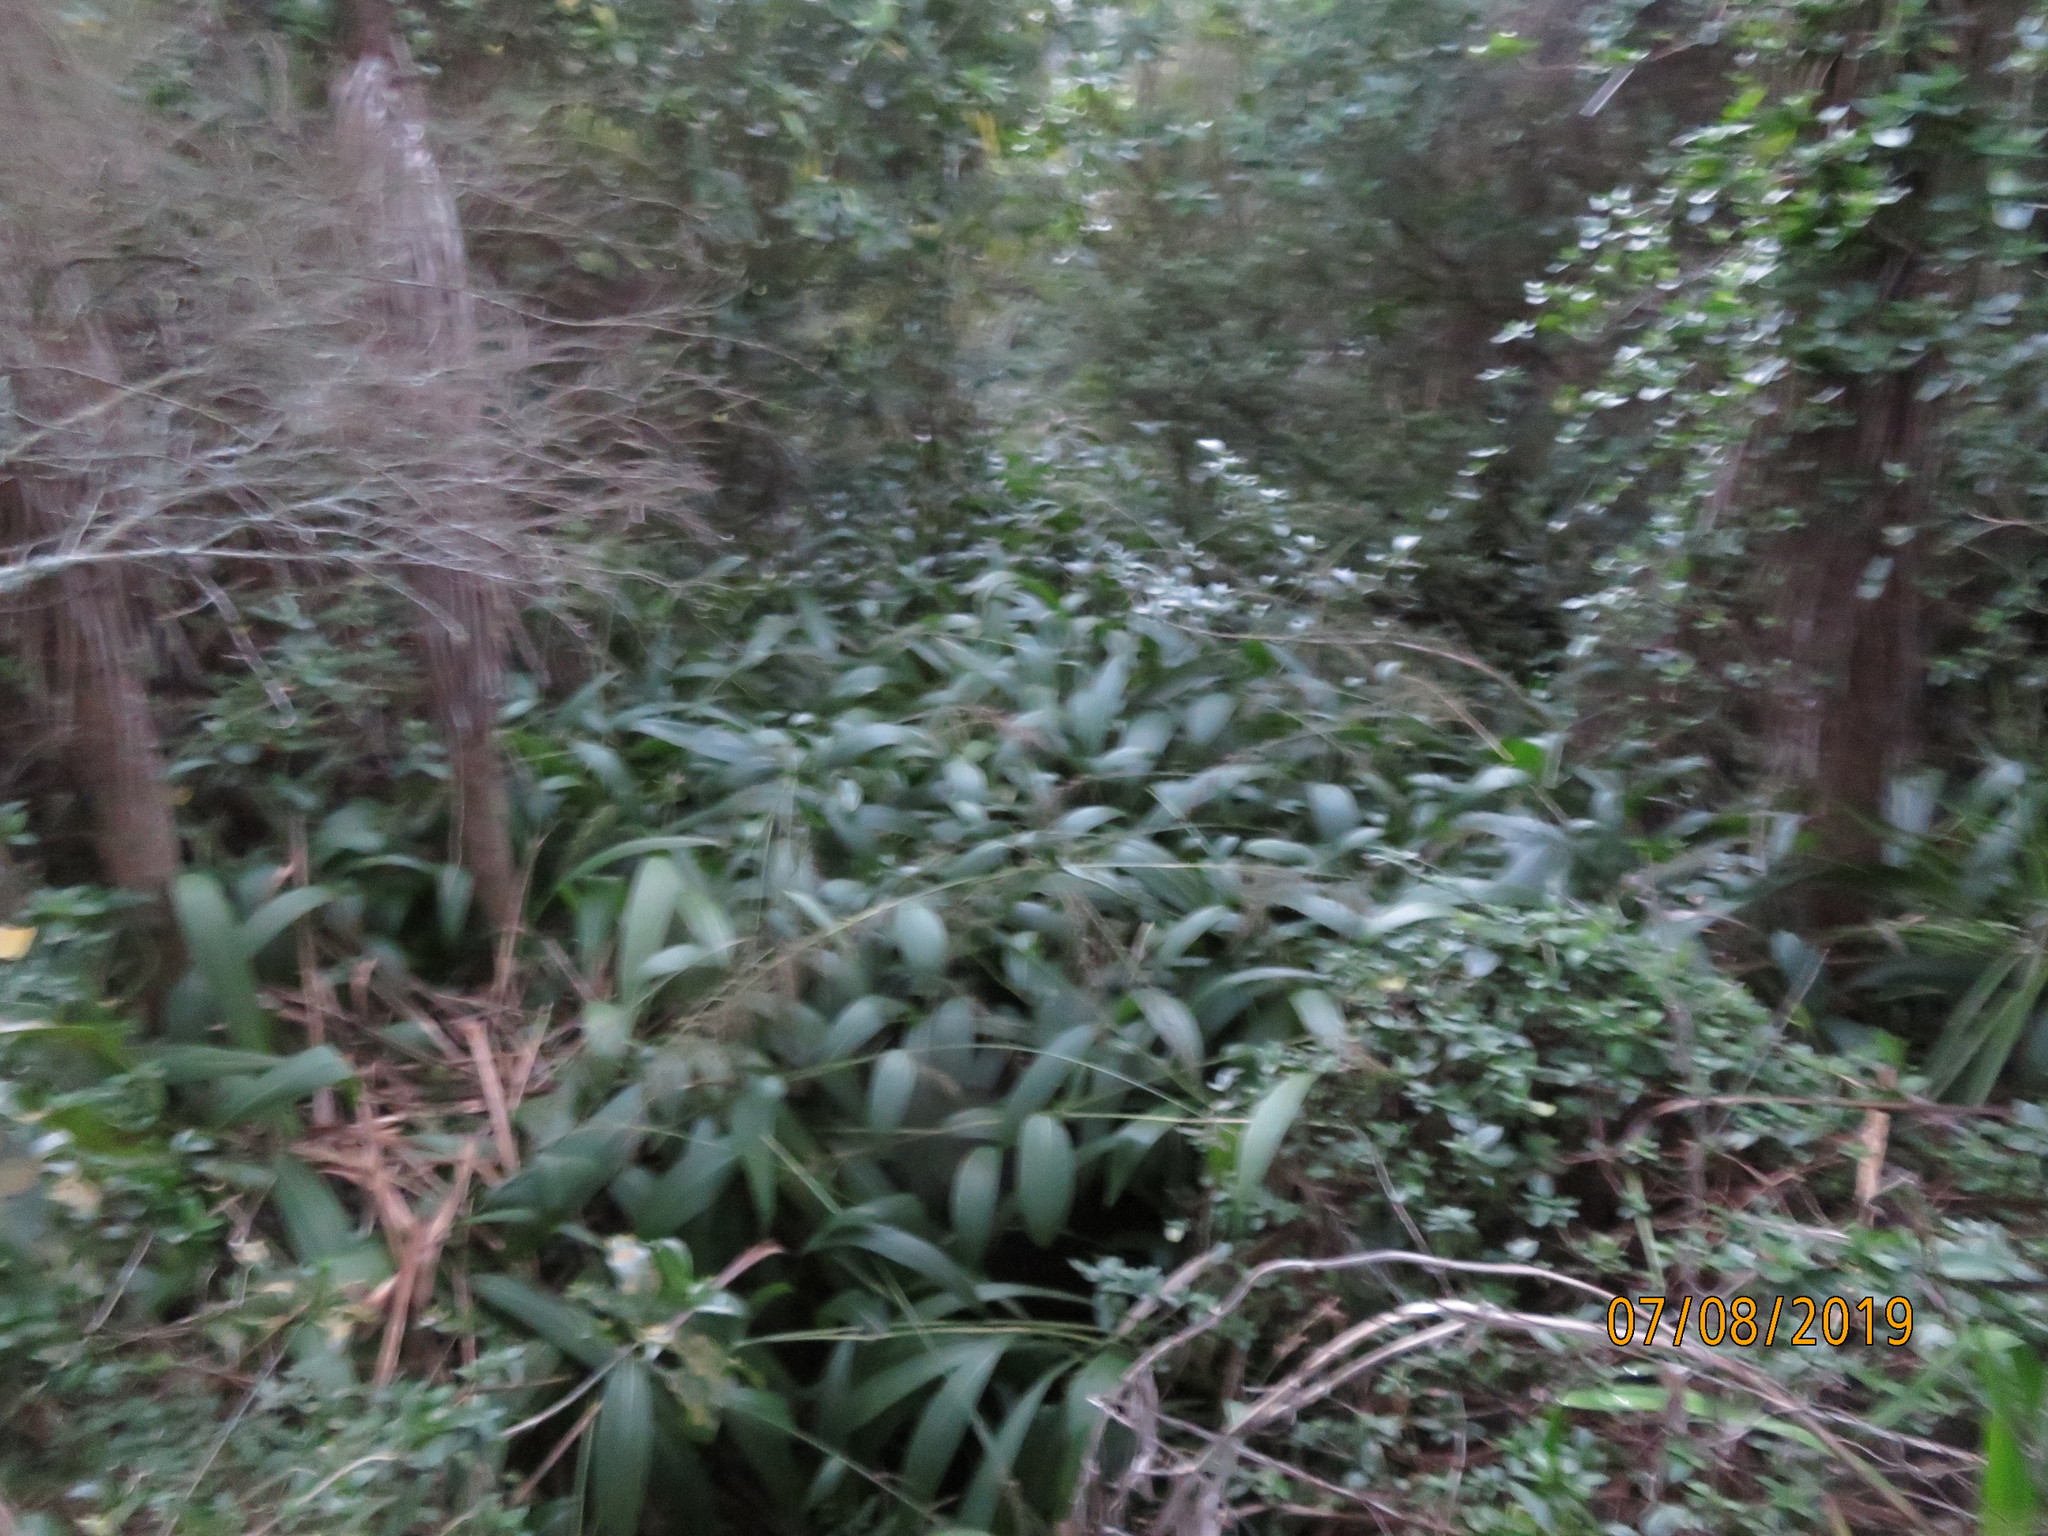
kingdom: Plantae
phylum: Tracheophyta
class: Liliopsida
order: Poales
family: Poaceae
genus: Setaria
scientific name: Setaria palmifolia
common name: Broadleaved bristlegrass
